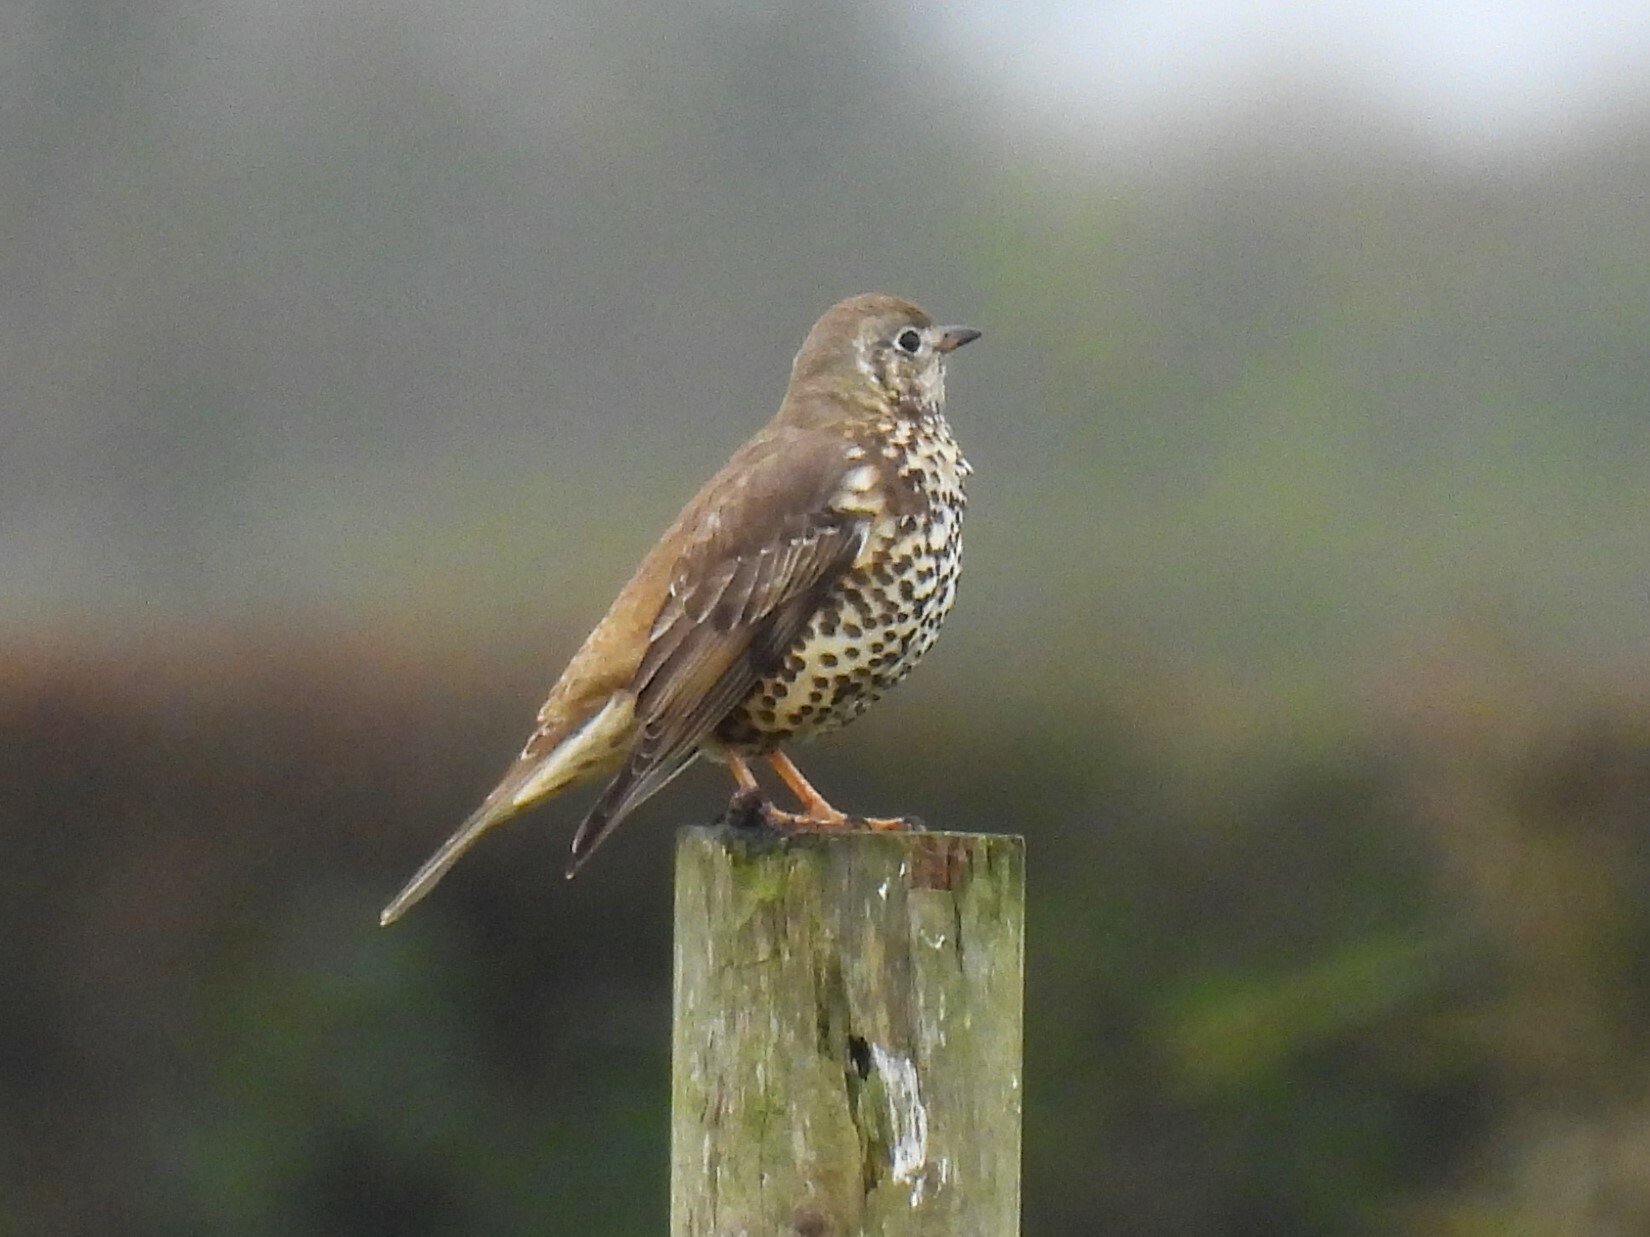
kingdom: Animalia
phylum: Chordata
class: Aves
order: Passeriformes
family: Turdidae
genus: Turdus
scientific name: Turdus viscivorus
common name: Mistle thrush
